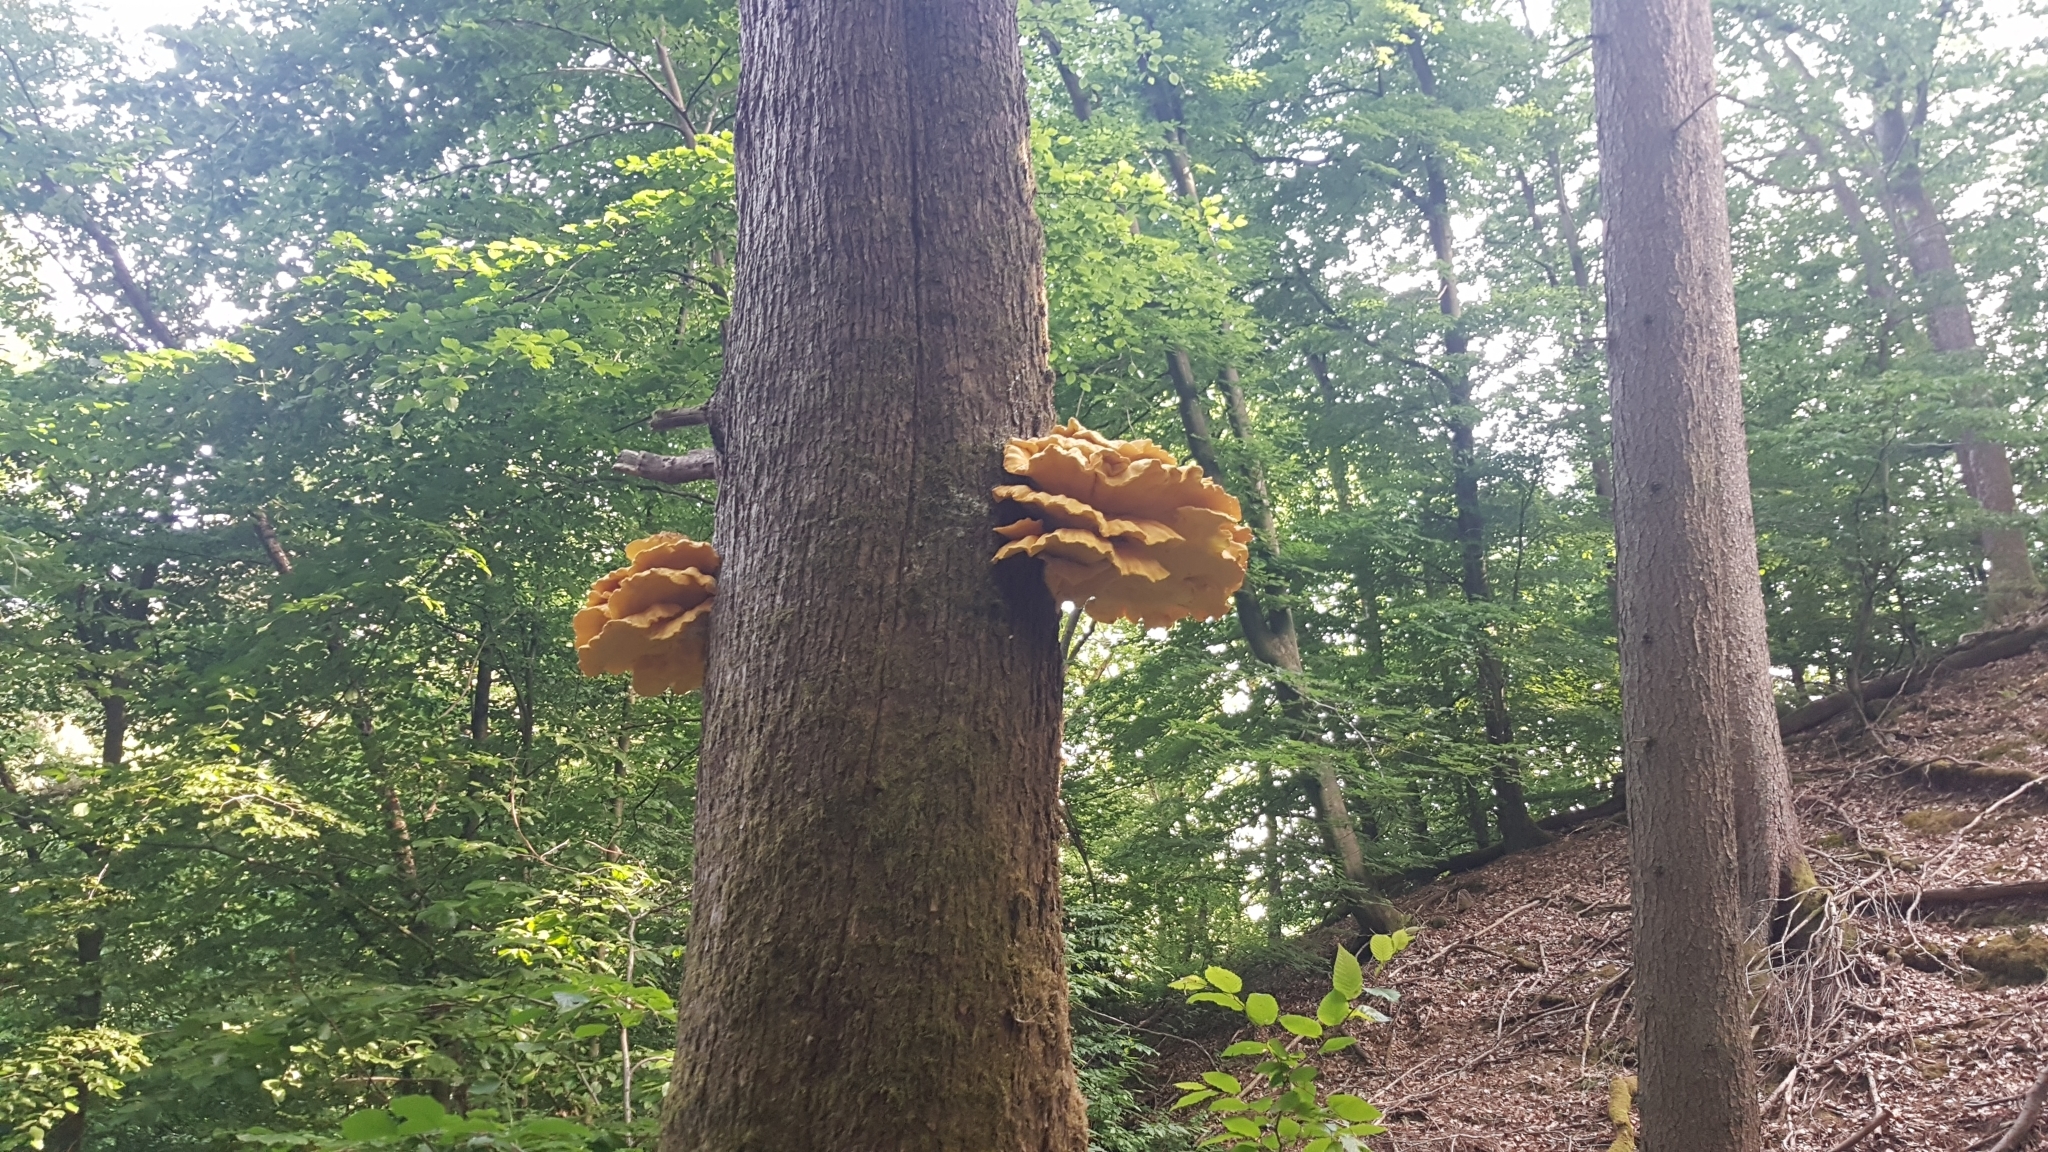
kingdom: Fungi
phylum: Basidiomycota
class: Agaricomycetes
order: Polyporales
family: Laetiporaceae
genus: Laetiporus
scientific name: Laetiporus sulphureus
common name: Chicken of the woods
